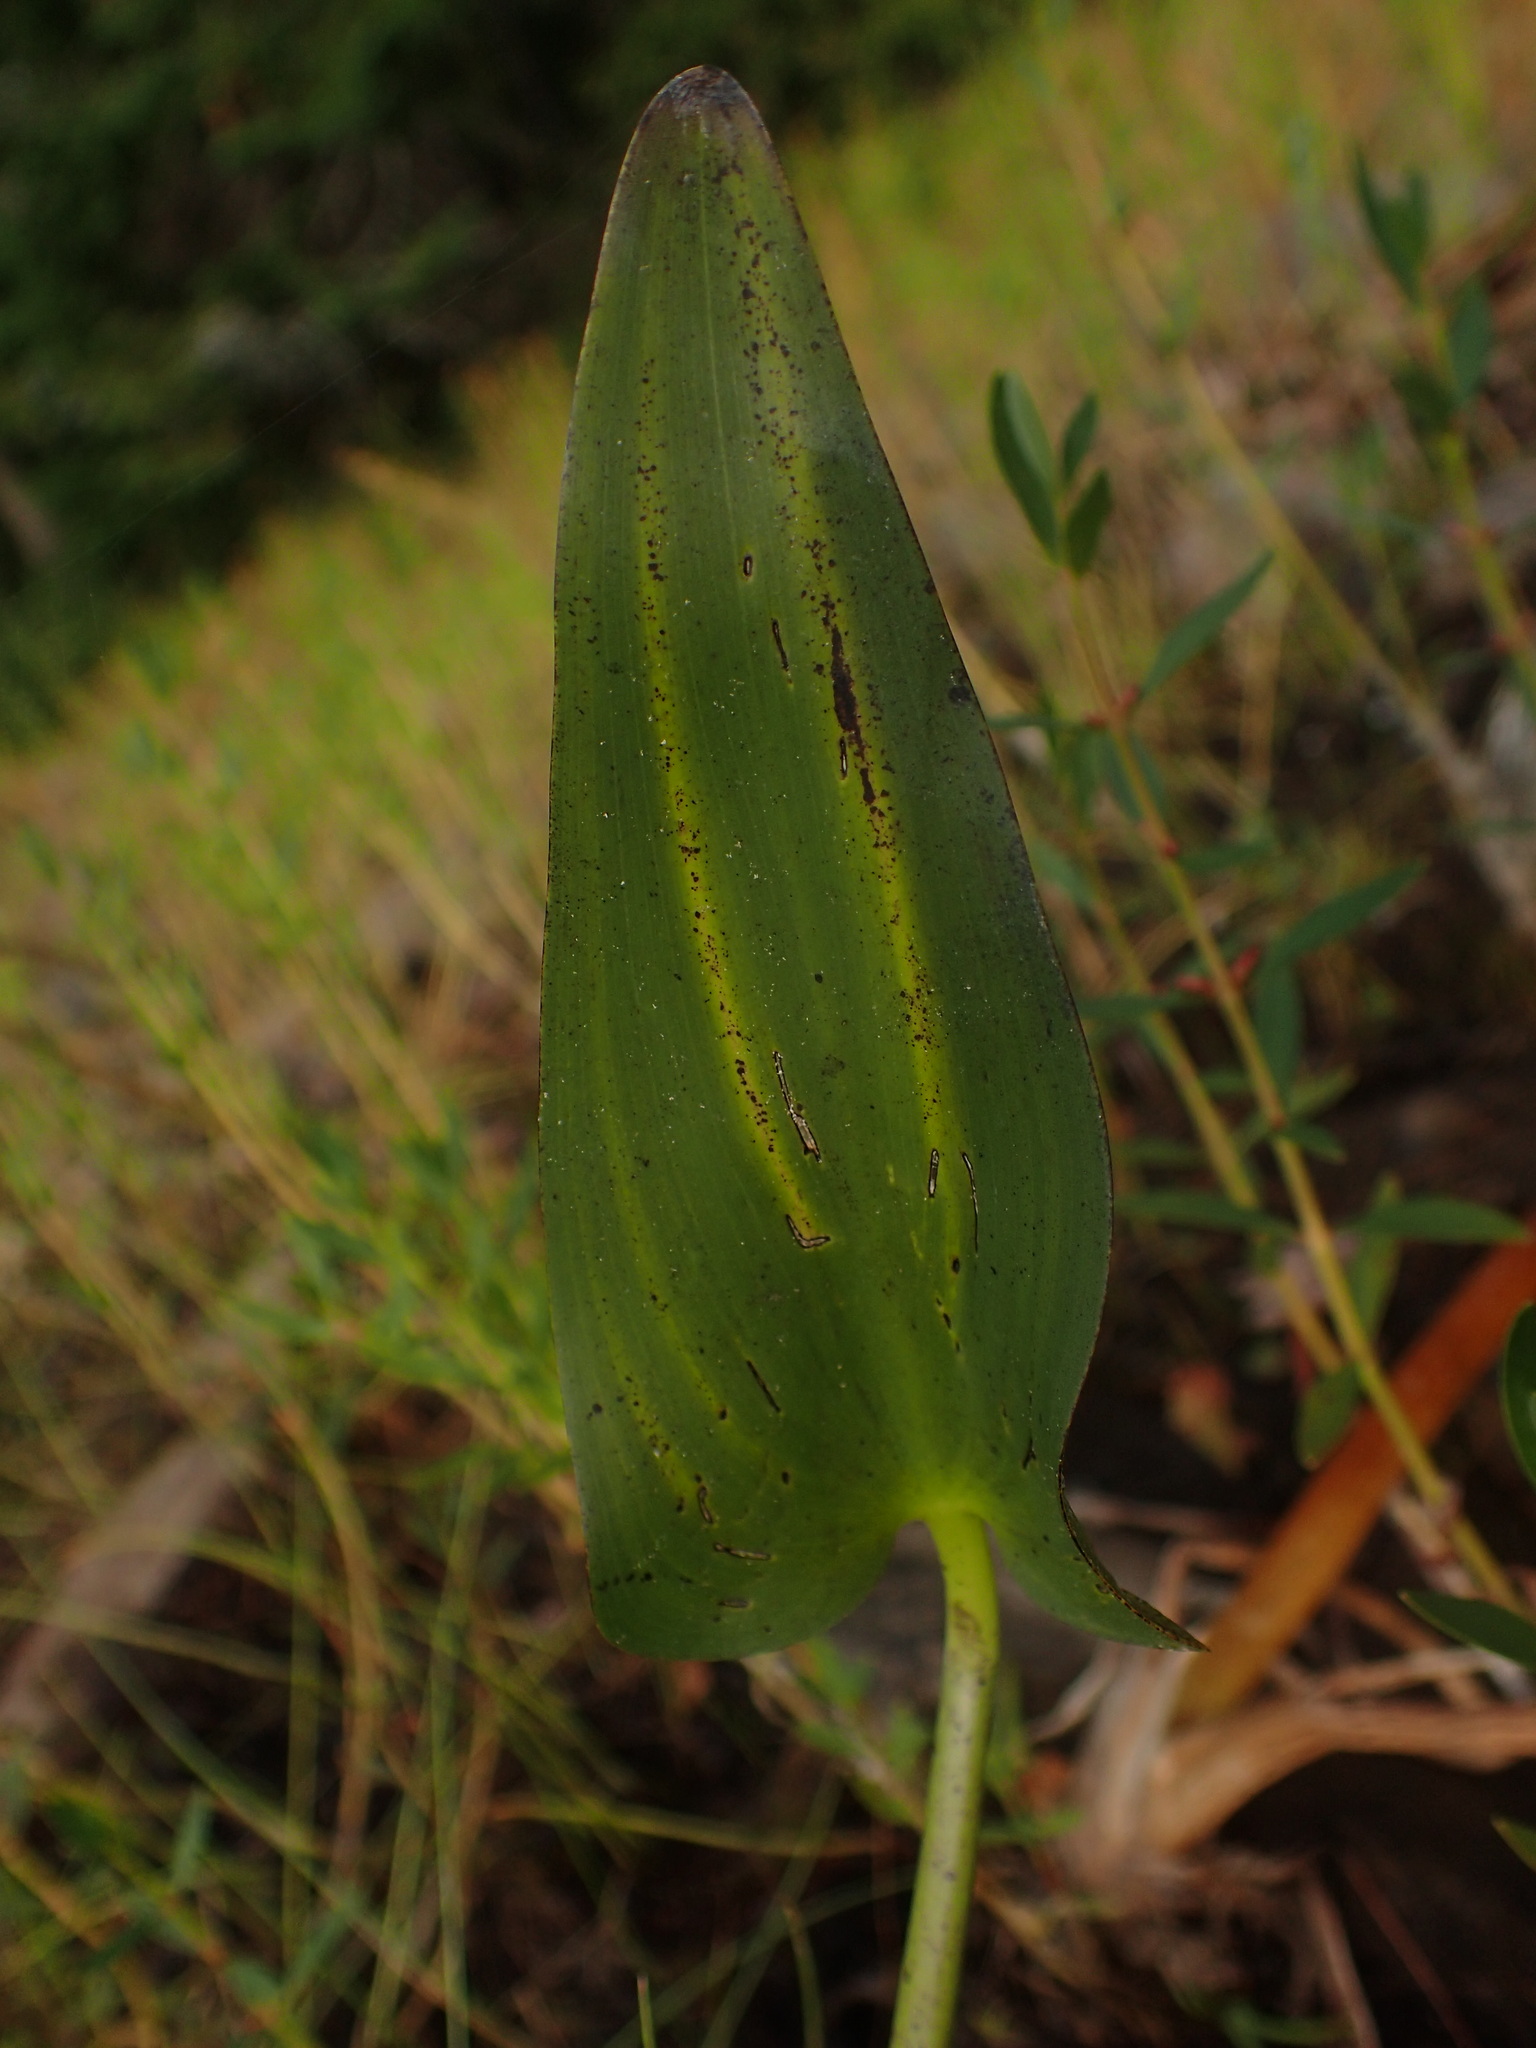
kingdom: Plantae
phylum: Tracheophyta
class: Liliopsida
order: Commelinales
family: Pontederiaceae
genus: Pontederia
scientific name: Pontederia cordata
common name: Pickerelweed
